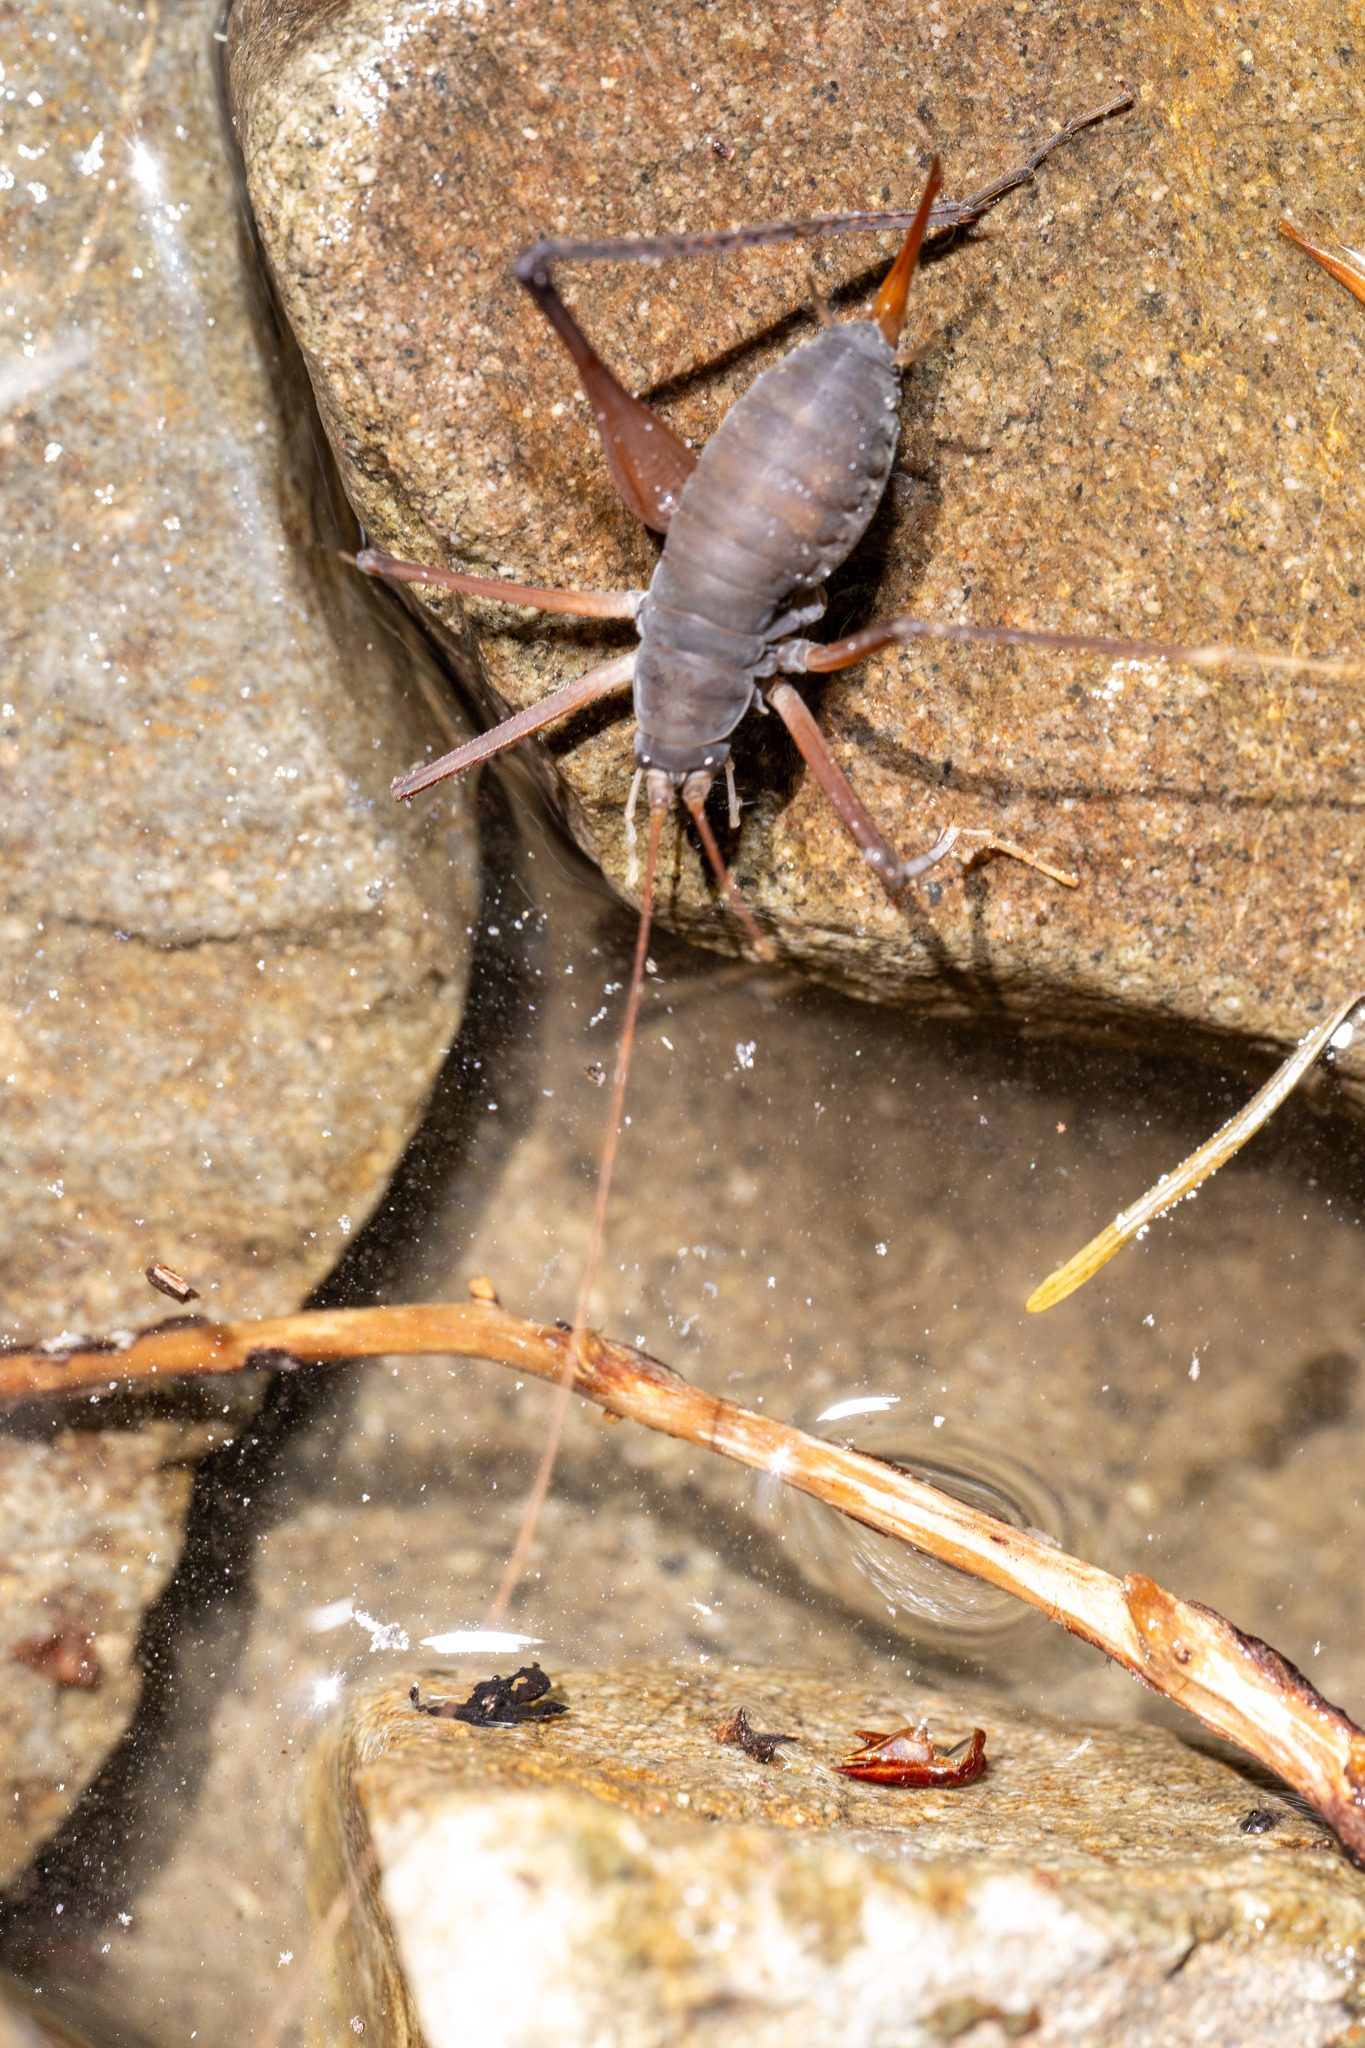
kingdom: Animalia
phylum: Arthropoda
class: Insecta
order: Orthoptera
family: Rhaphidophoridae
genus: Tropidischia
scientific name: Tropidischia xanthostoma
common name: Square-legged camel cricket
